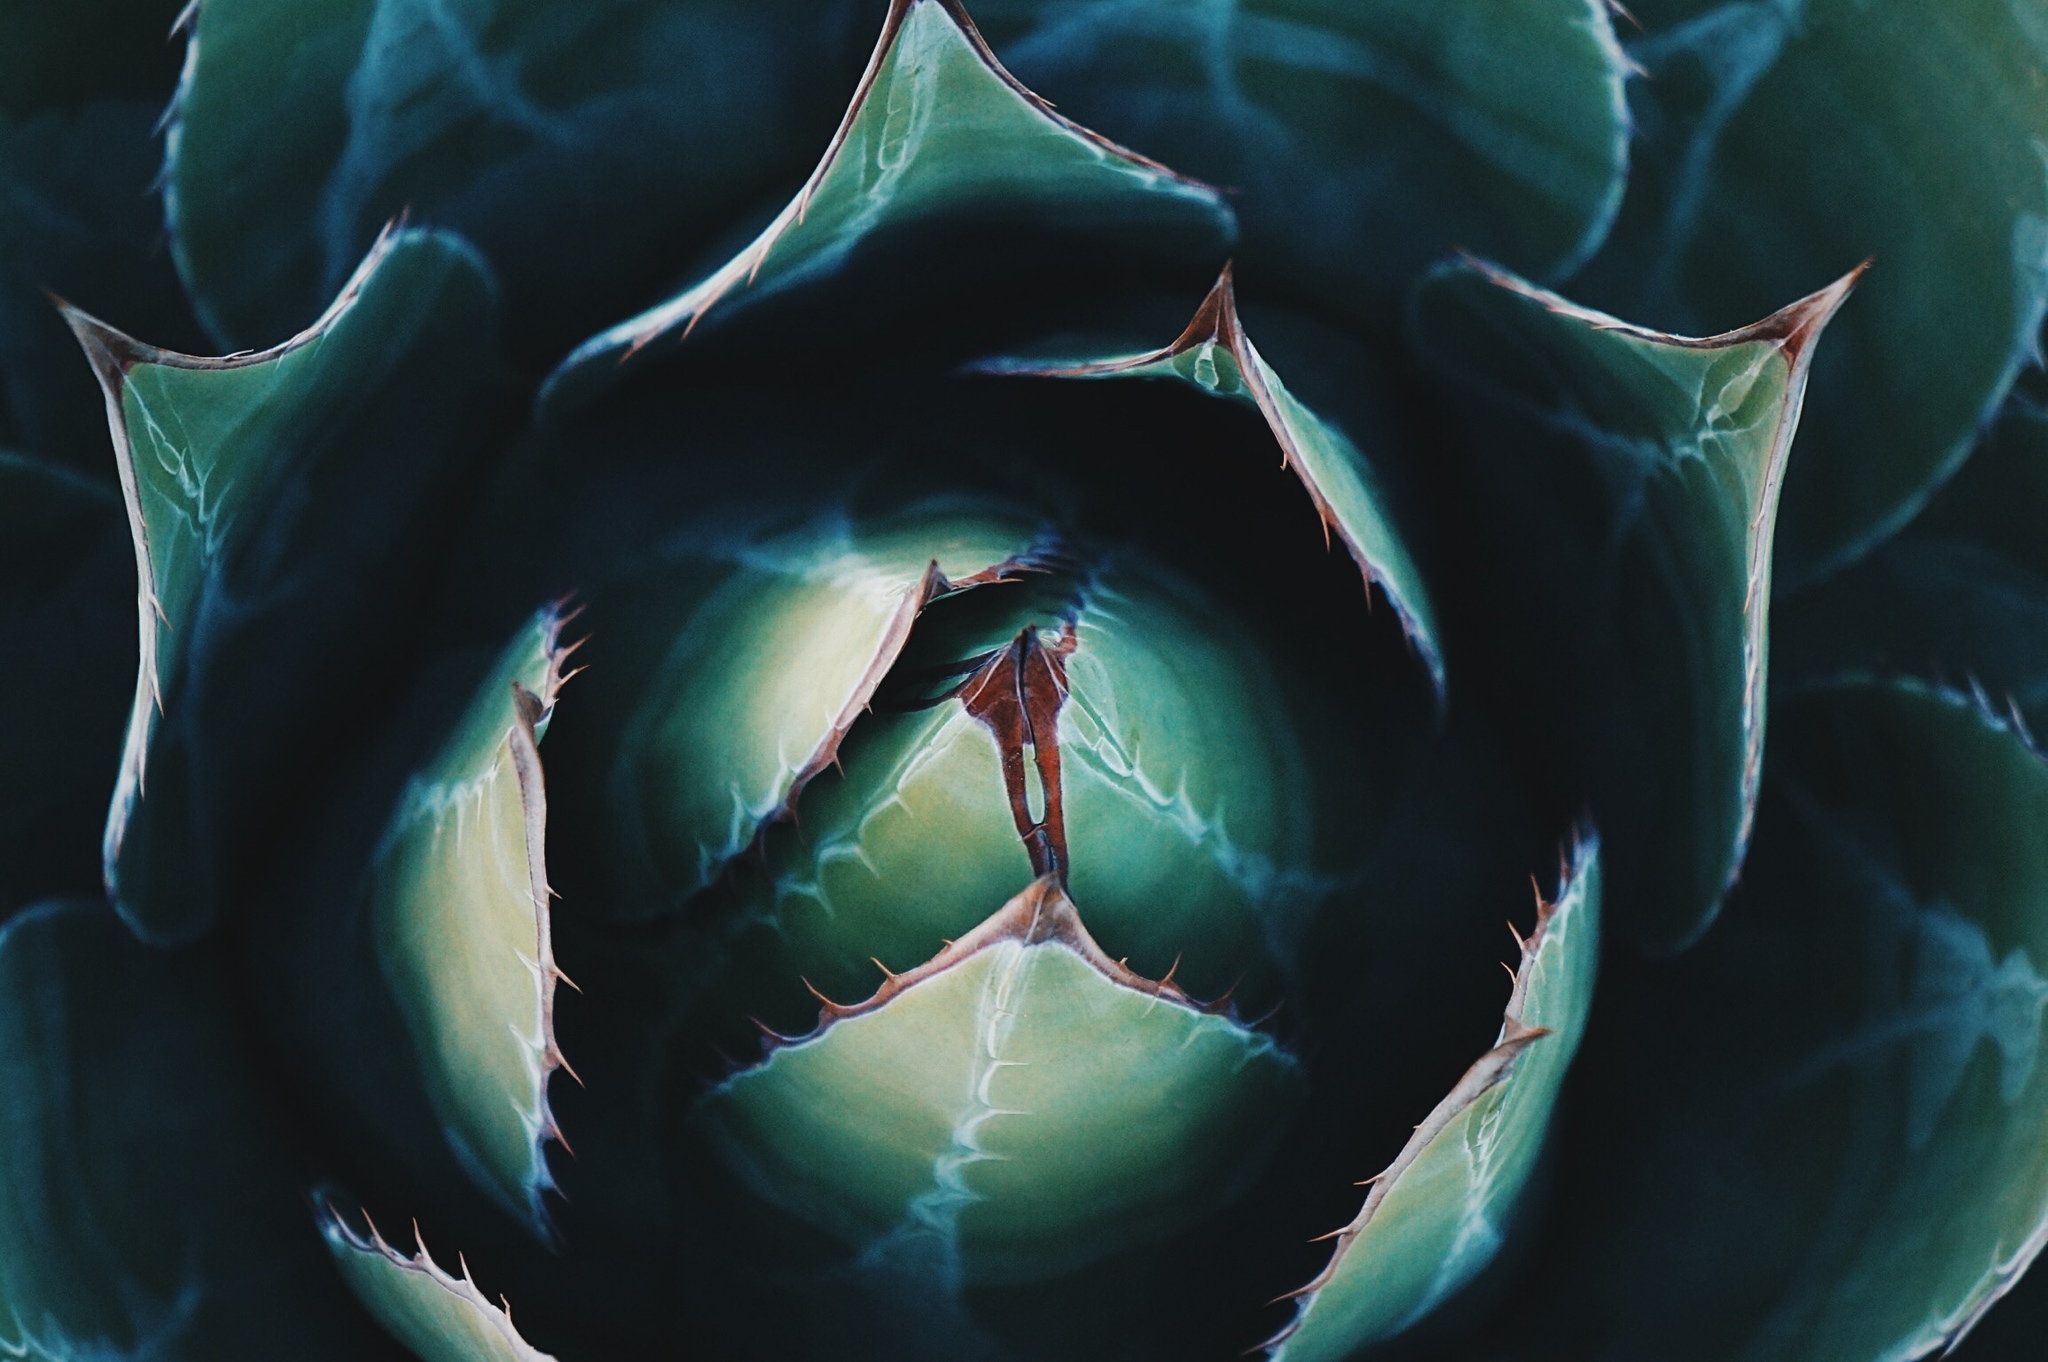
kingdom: Plantae
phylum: Tracheophyta
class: Liliopsida
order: Asparagales
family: Asparagaceae
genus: Agave
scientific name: Agave montana
